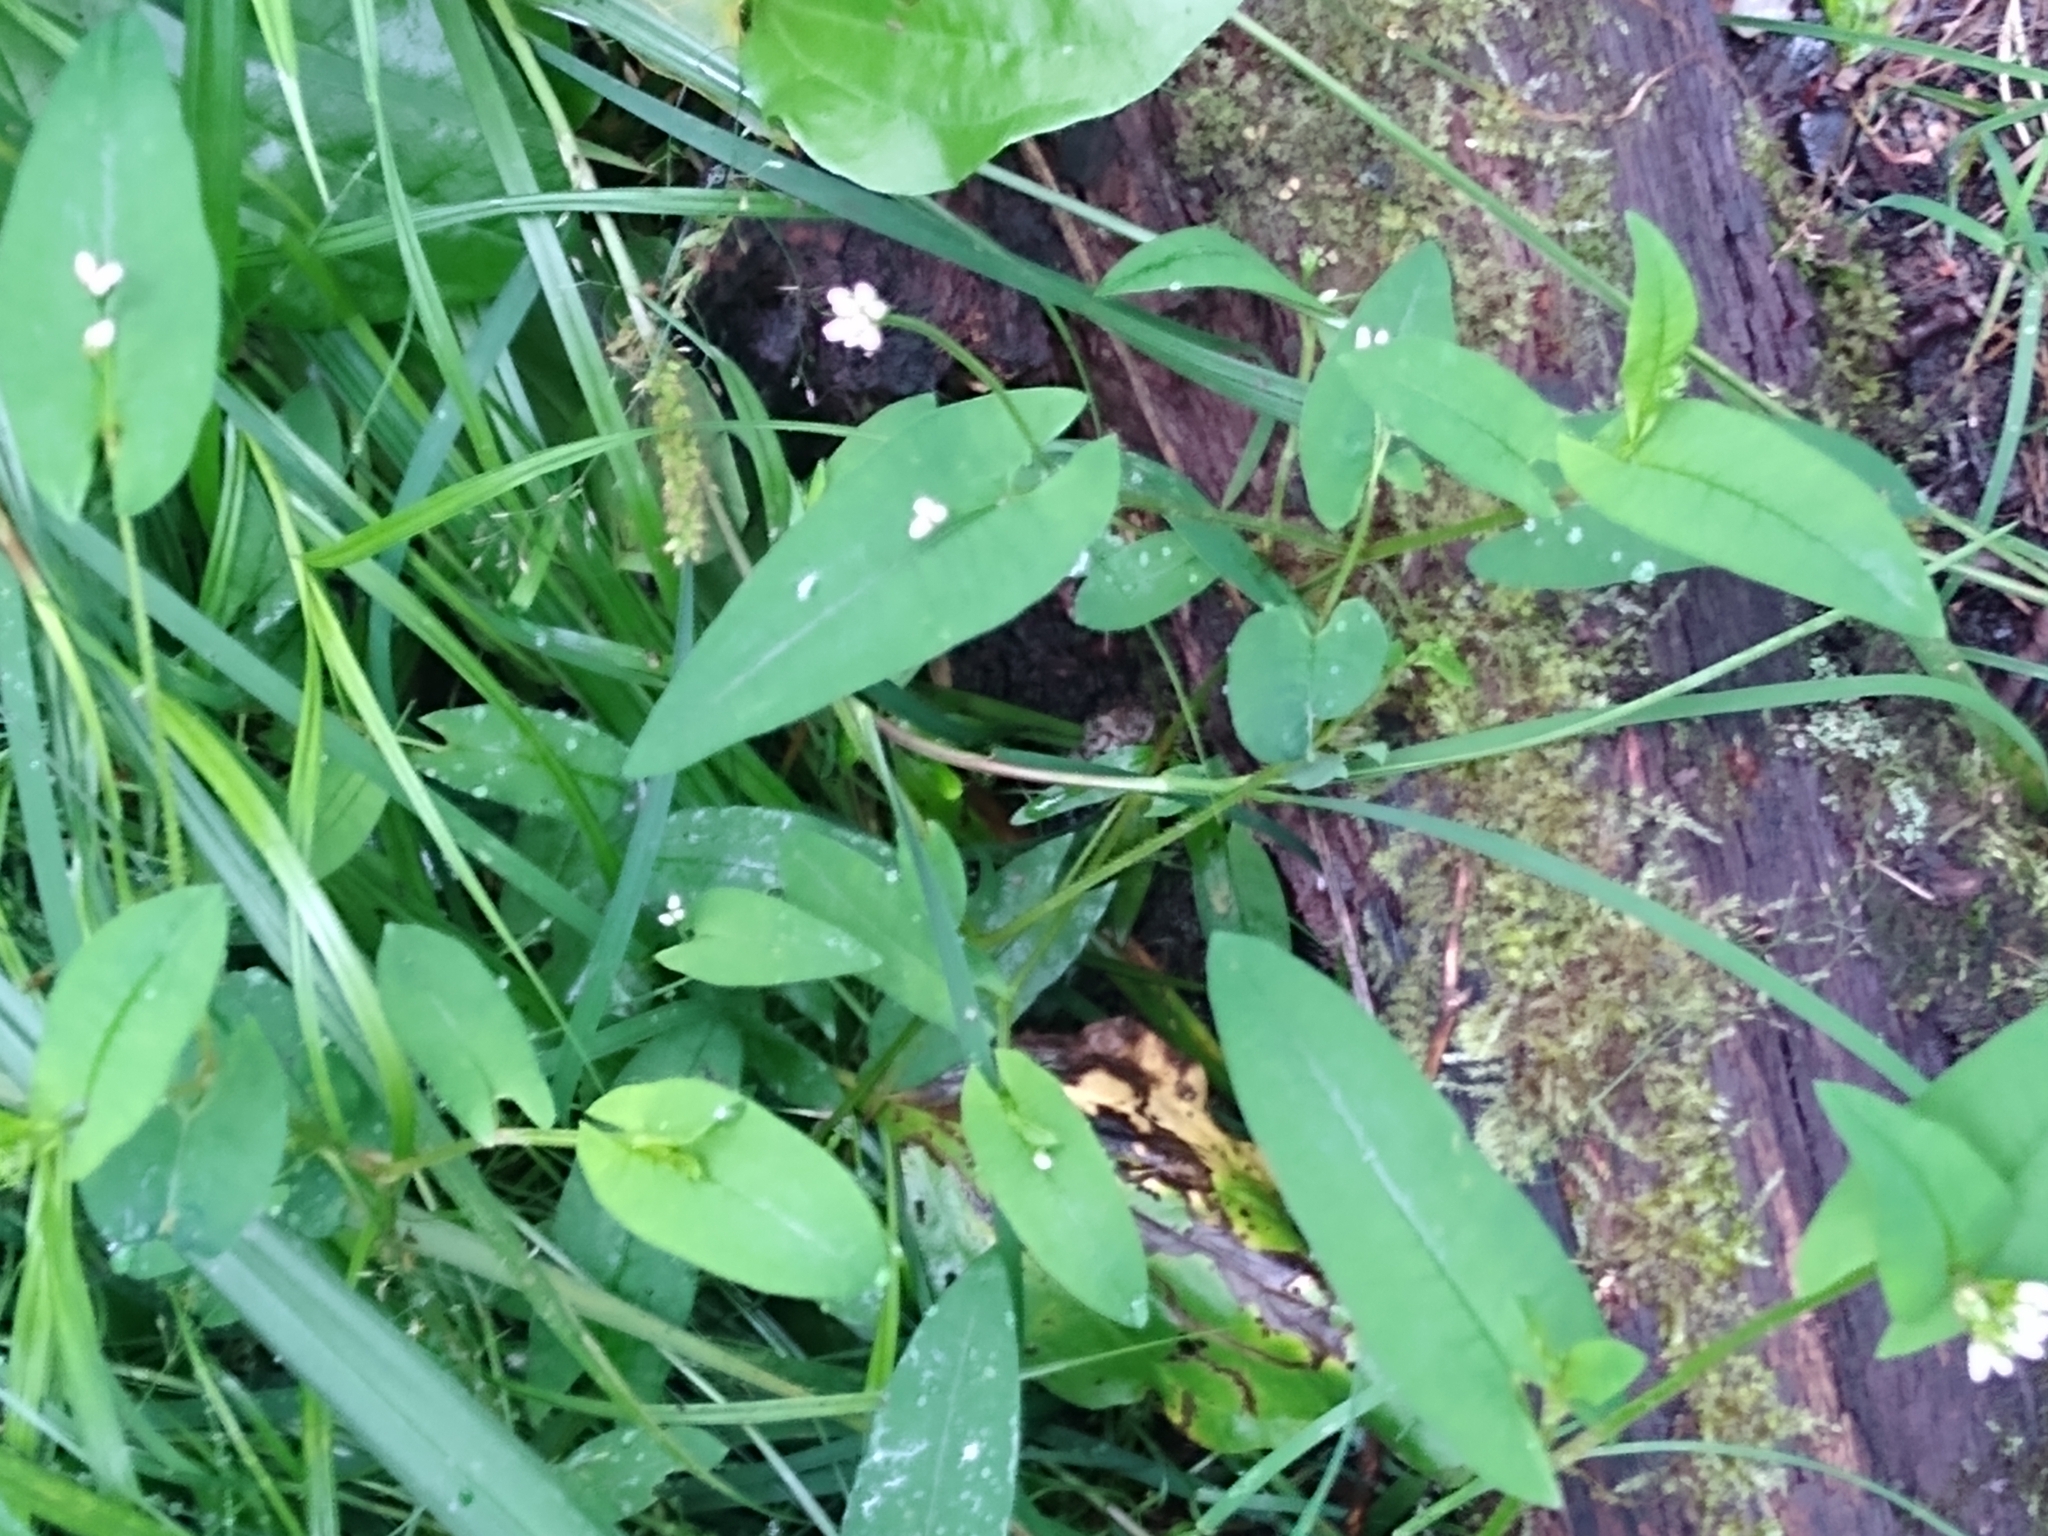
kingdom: Plantae
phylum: Tracheophyta
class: Magnoliopsida
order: Caryophyllales
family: Polygonaceae
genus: Persicaria
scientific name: Persicaria sagittata
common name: American tearthumb
